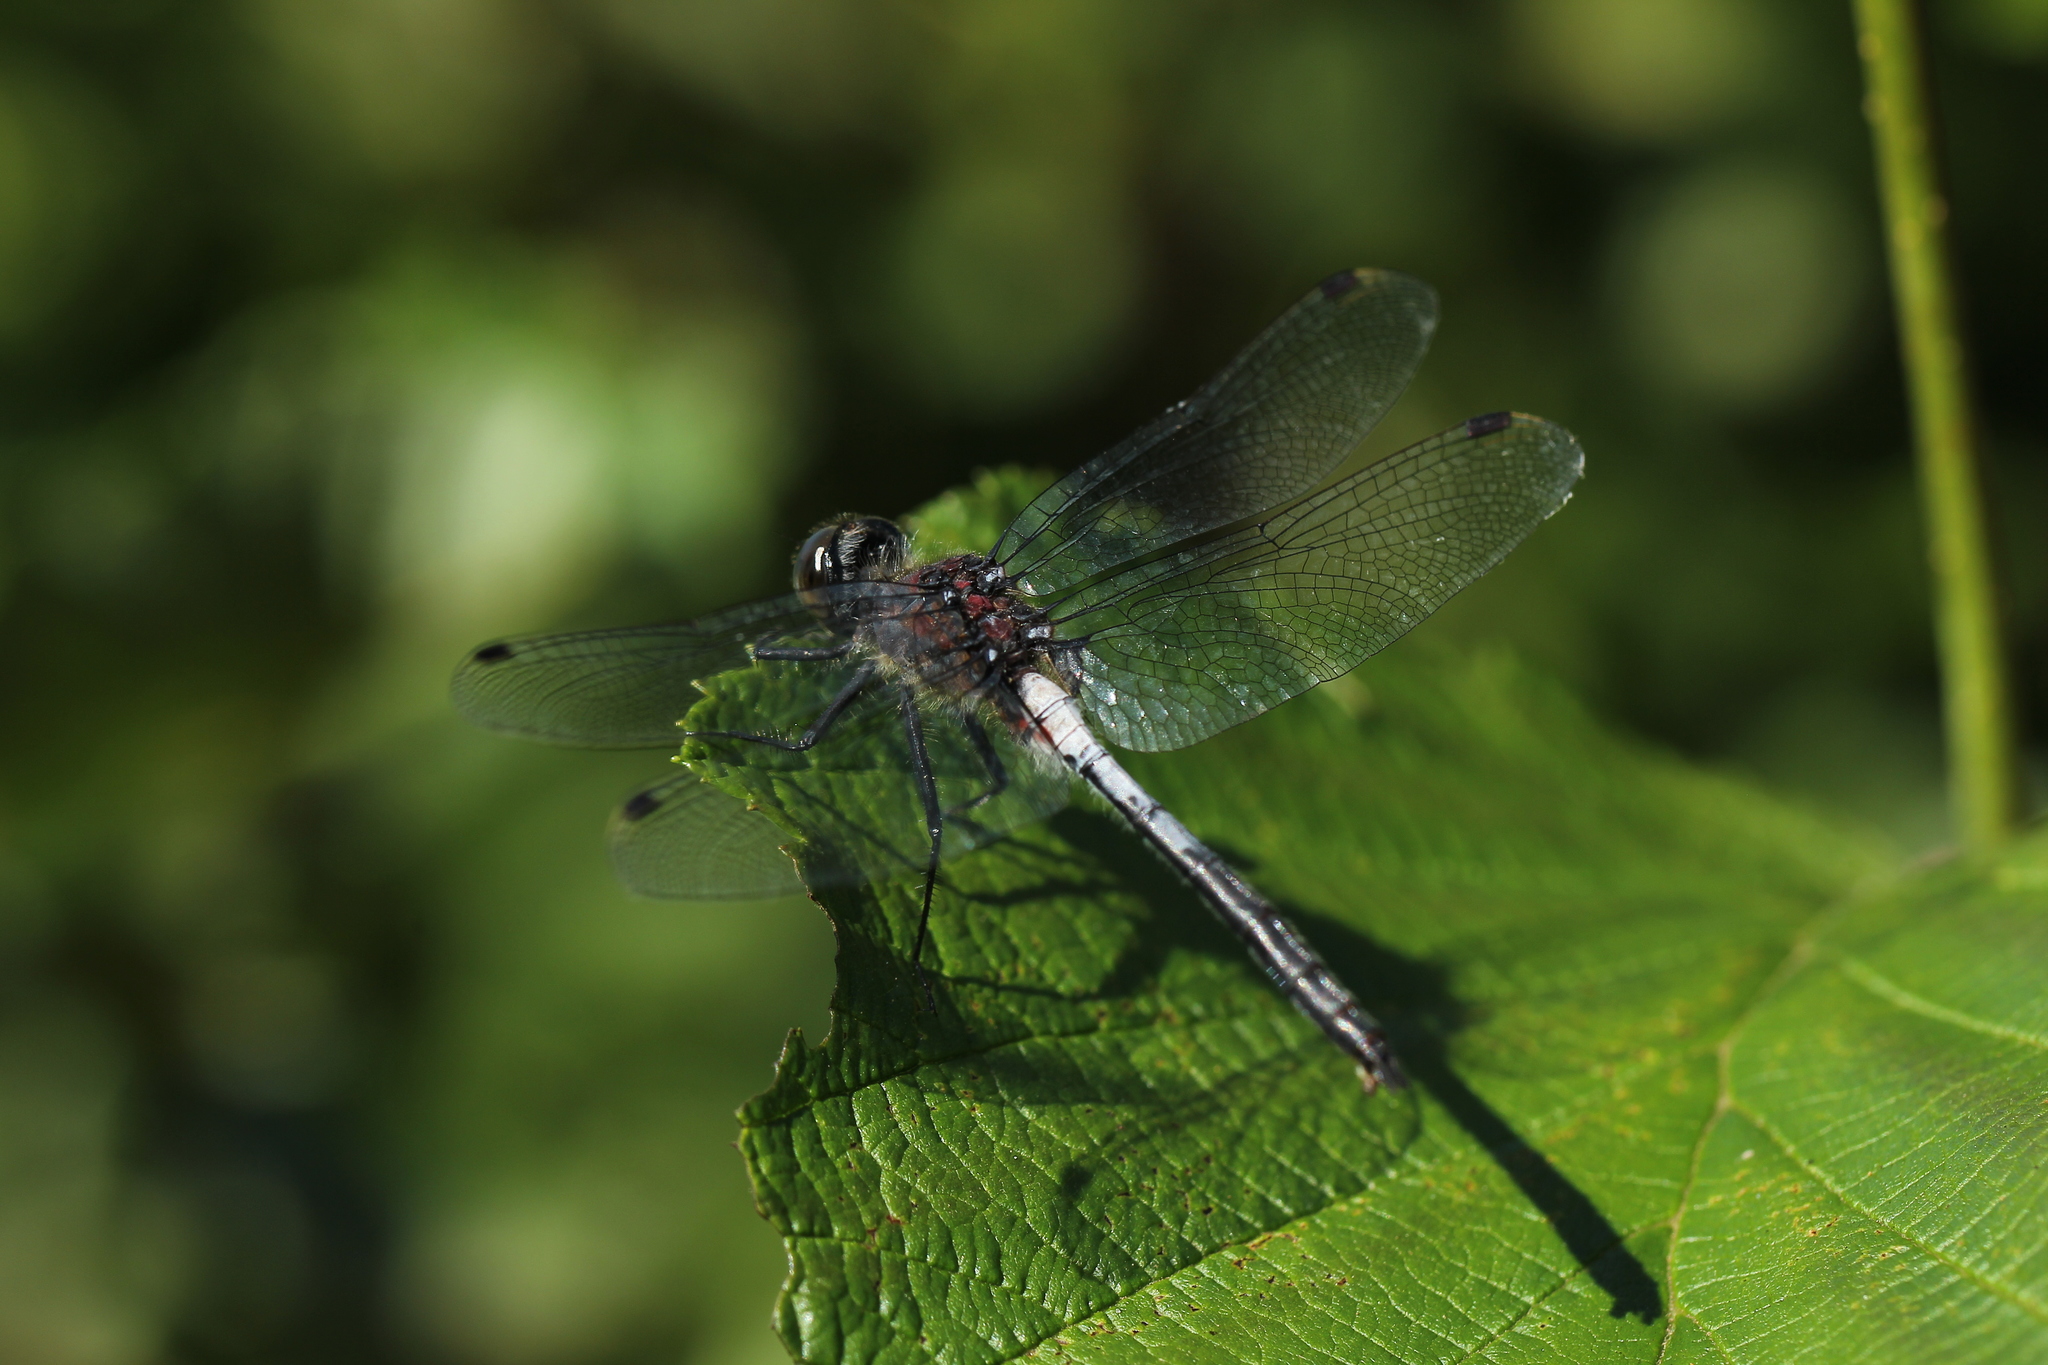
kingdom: Animalia
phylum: Arthropoda
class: Insecta
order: Odonata
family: Libellulidae
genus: Leucorrhinia
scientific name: Leucorrhinia proxima
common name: Belted whiteface
